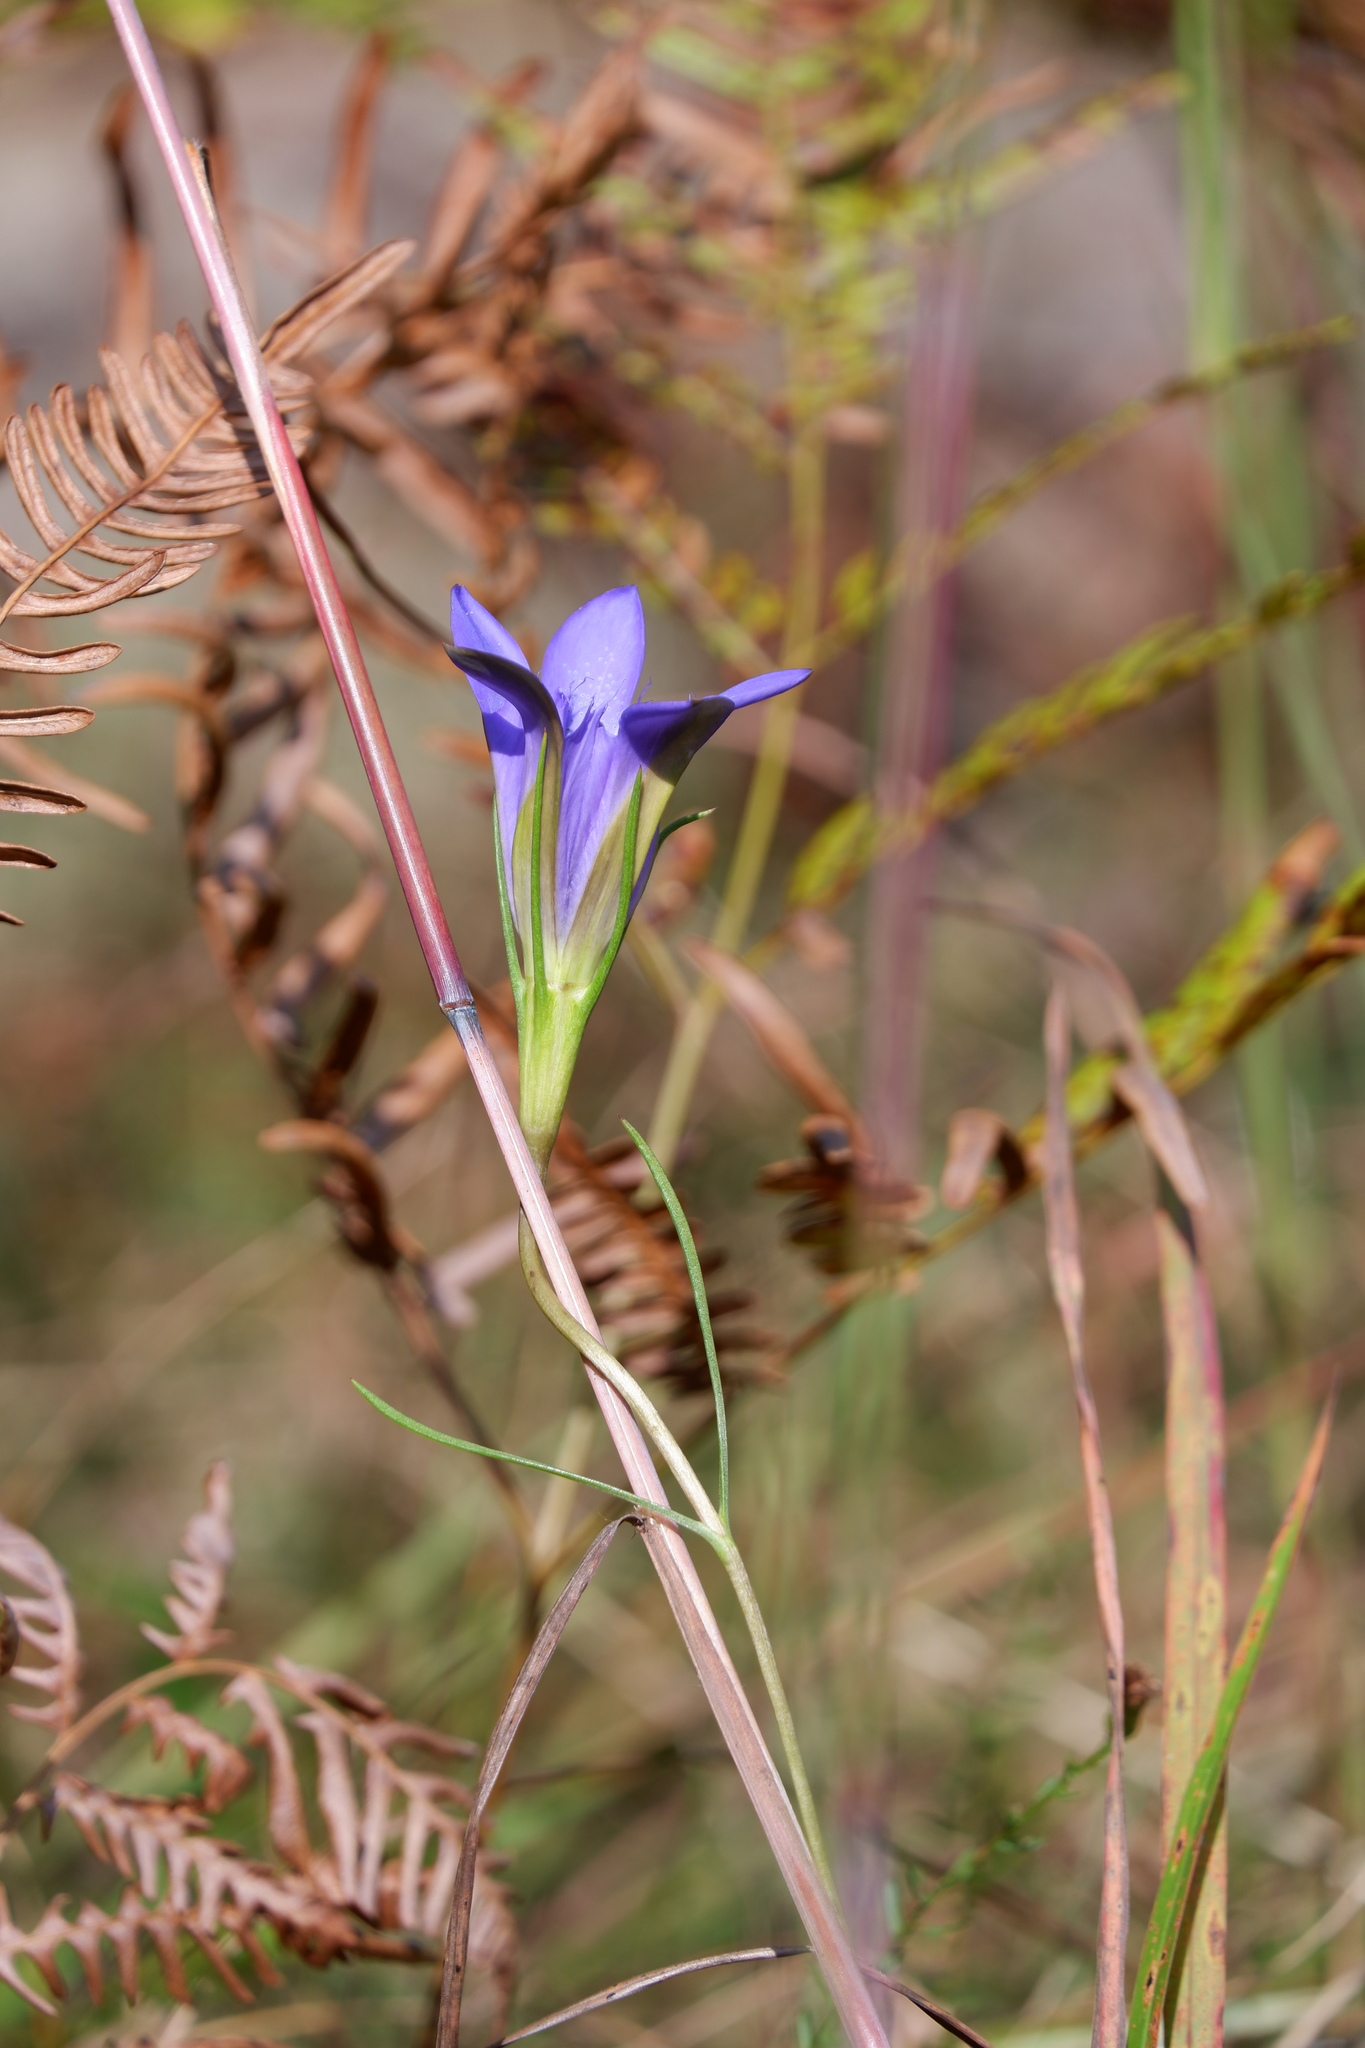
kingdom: Plantae
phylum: Tracheophyta
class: Magnoliopsida
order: Gentianales
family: Gentianaceae
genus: Gentiana
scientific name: Gentiana autumnalis
